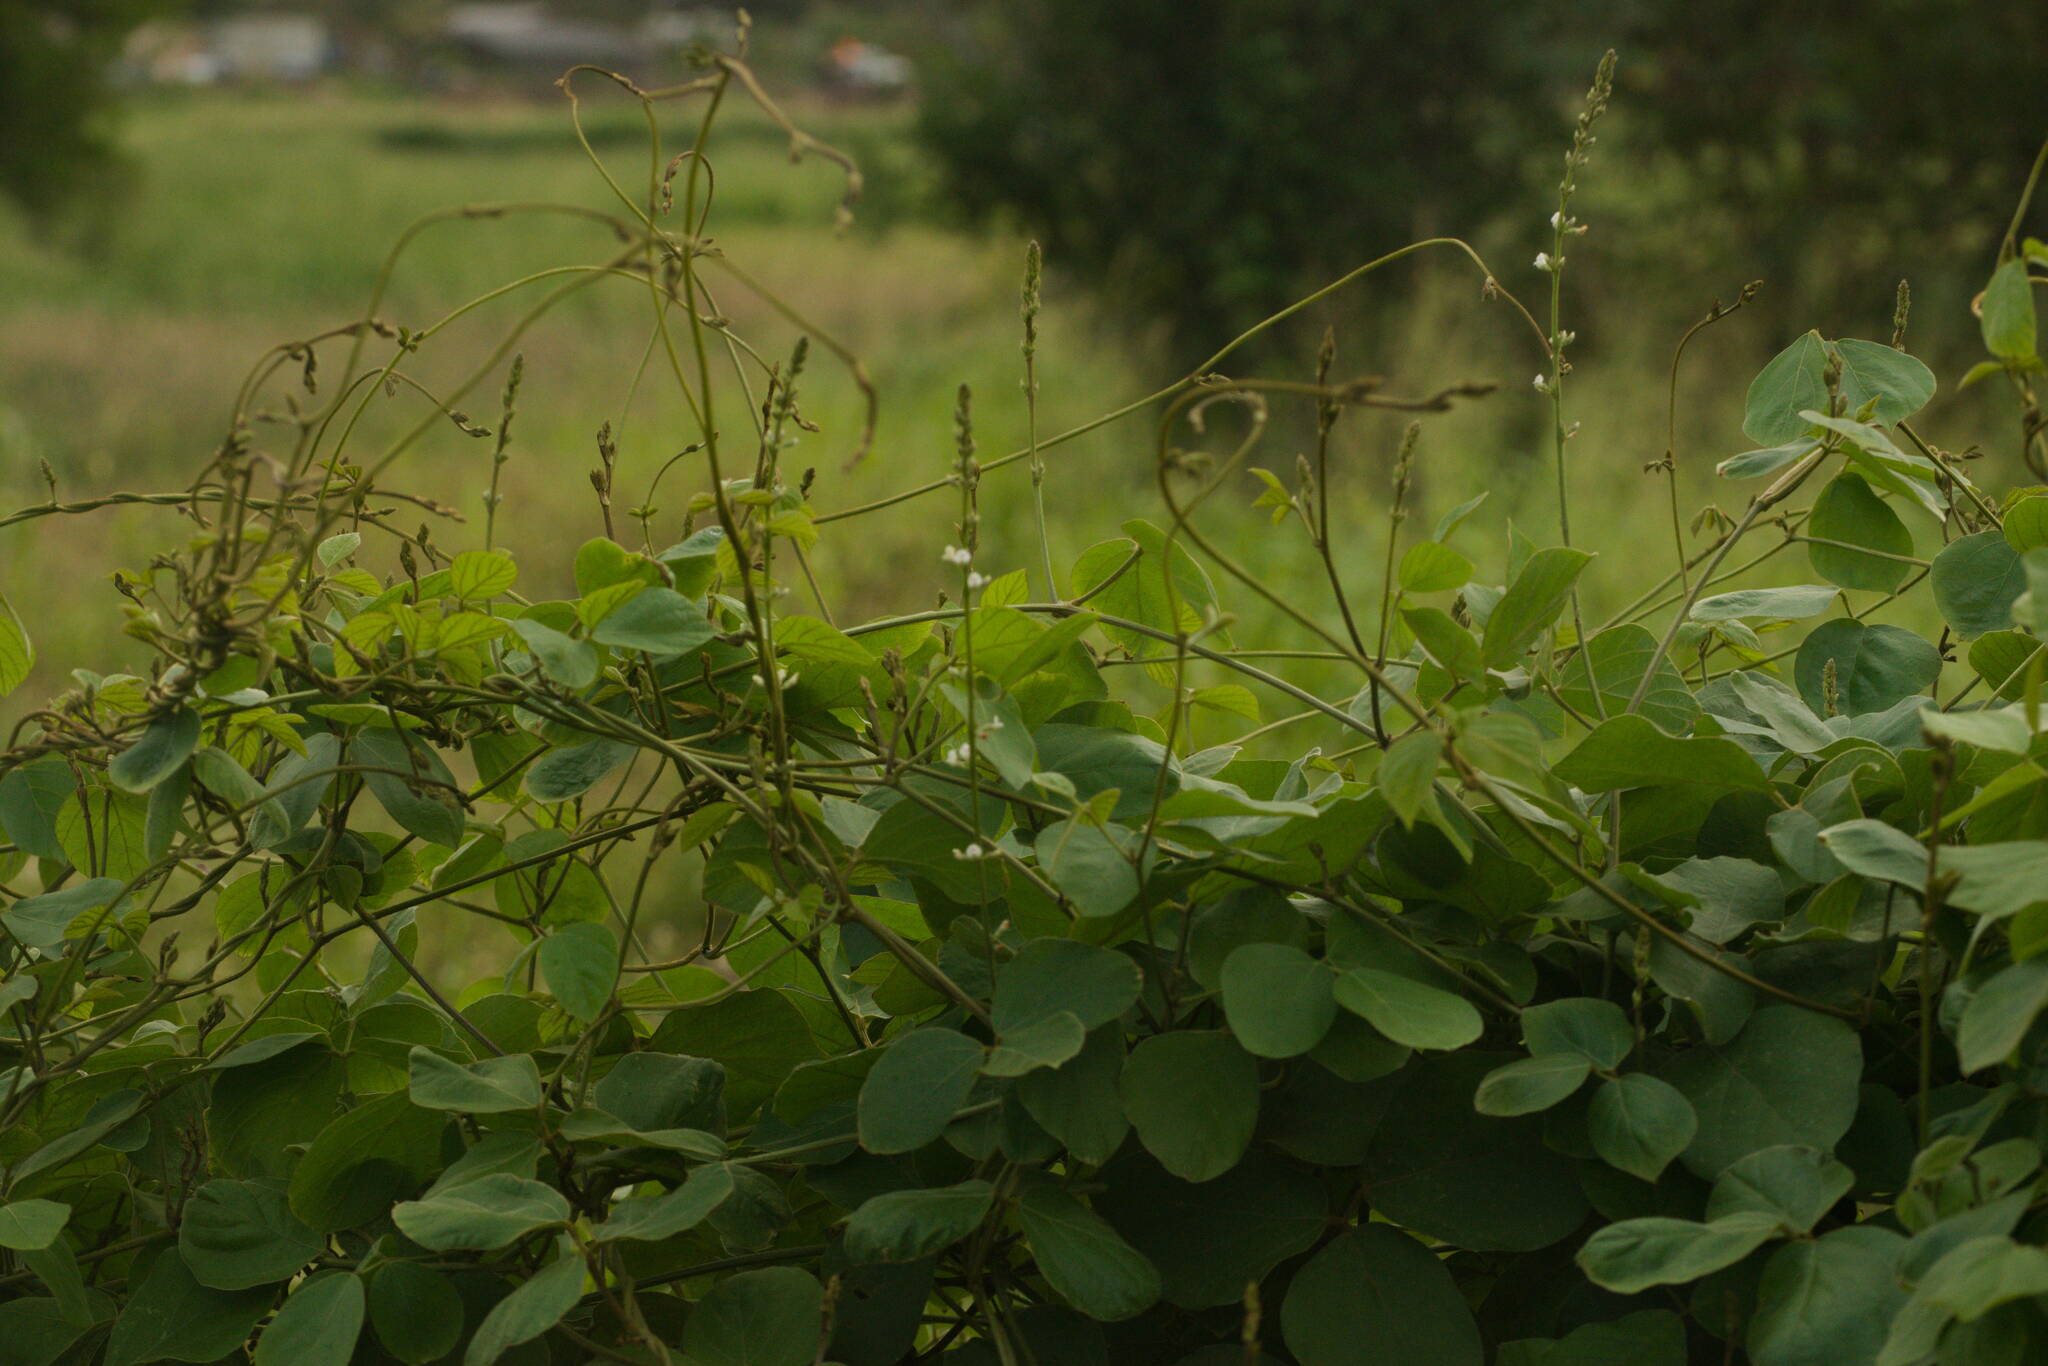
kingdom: Plantae
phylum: Tracheophyta
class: Magnoliopsida
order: Fabales
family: Fabaceae
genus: Neonotonia
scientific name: Neonotonia wightii
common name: Perennial soybean
